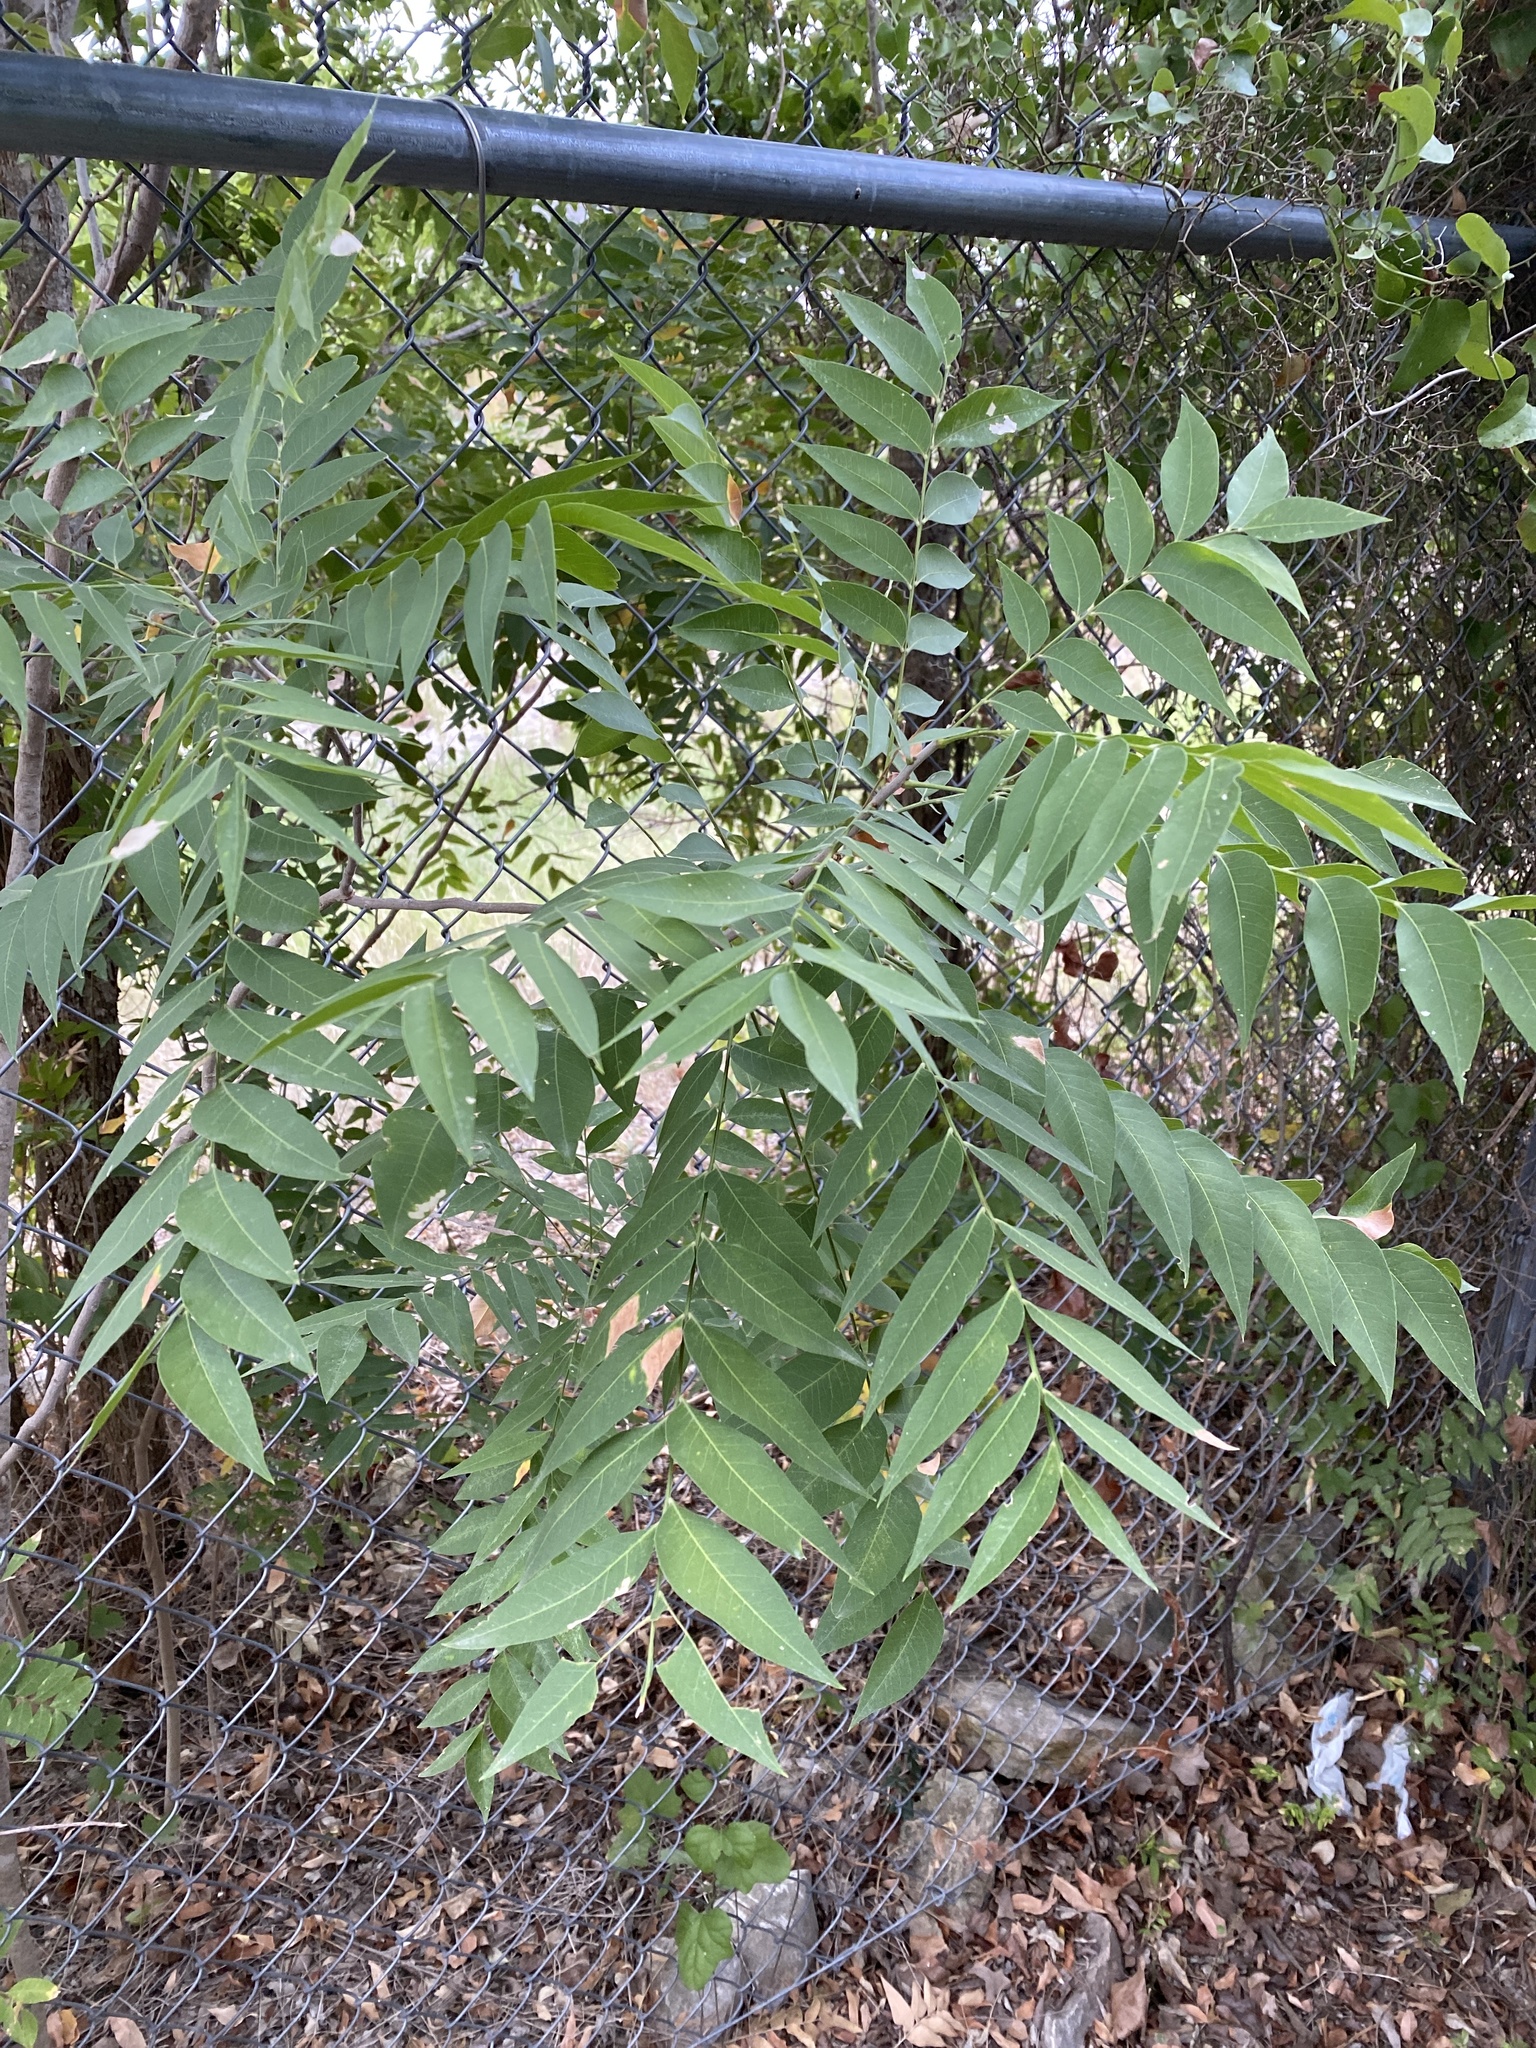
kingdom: Plantae
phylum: Tracheophyta
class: Magnoliopsida
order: Sapindales
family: Sapindaceae
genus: Sapindus
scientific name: Sapindus drummondii
